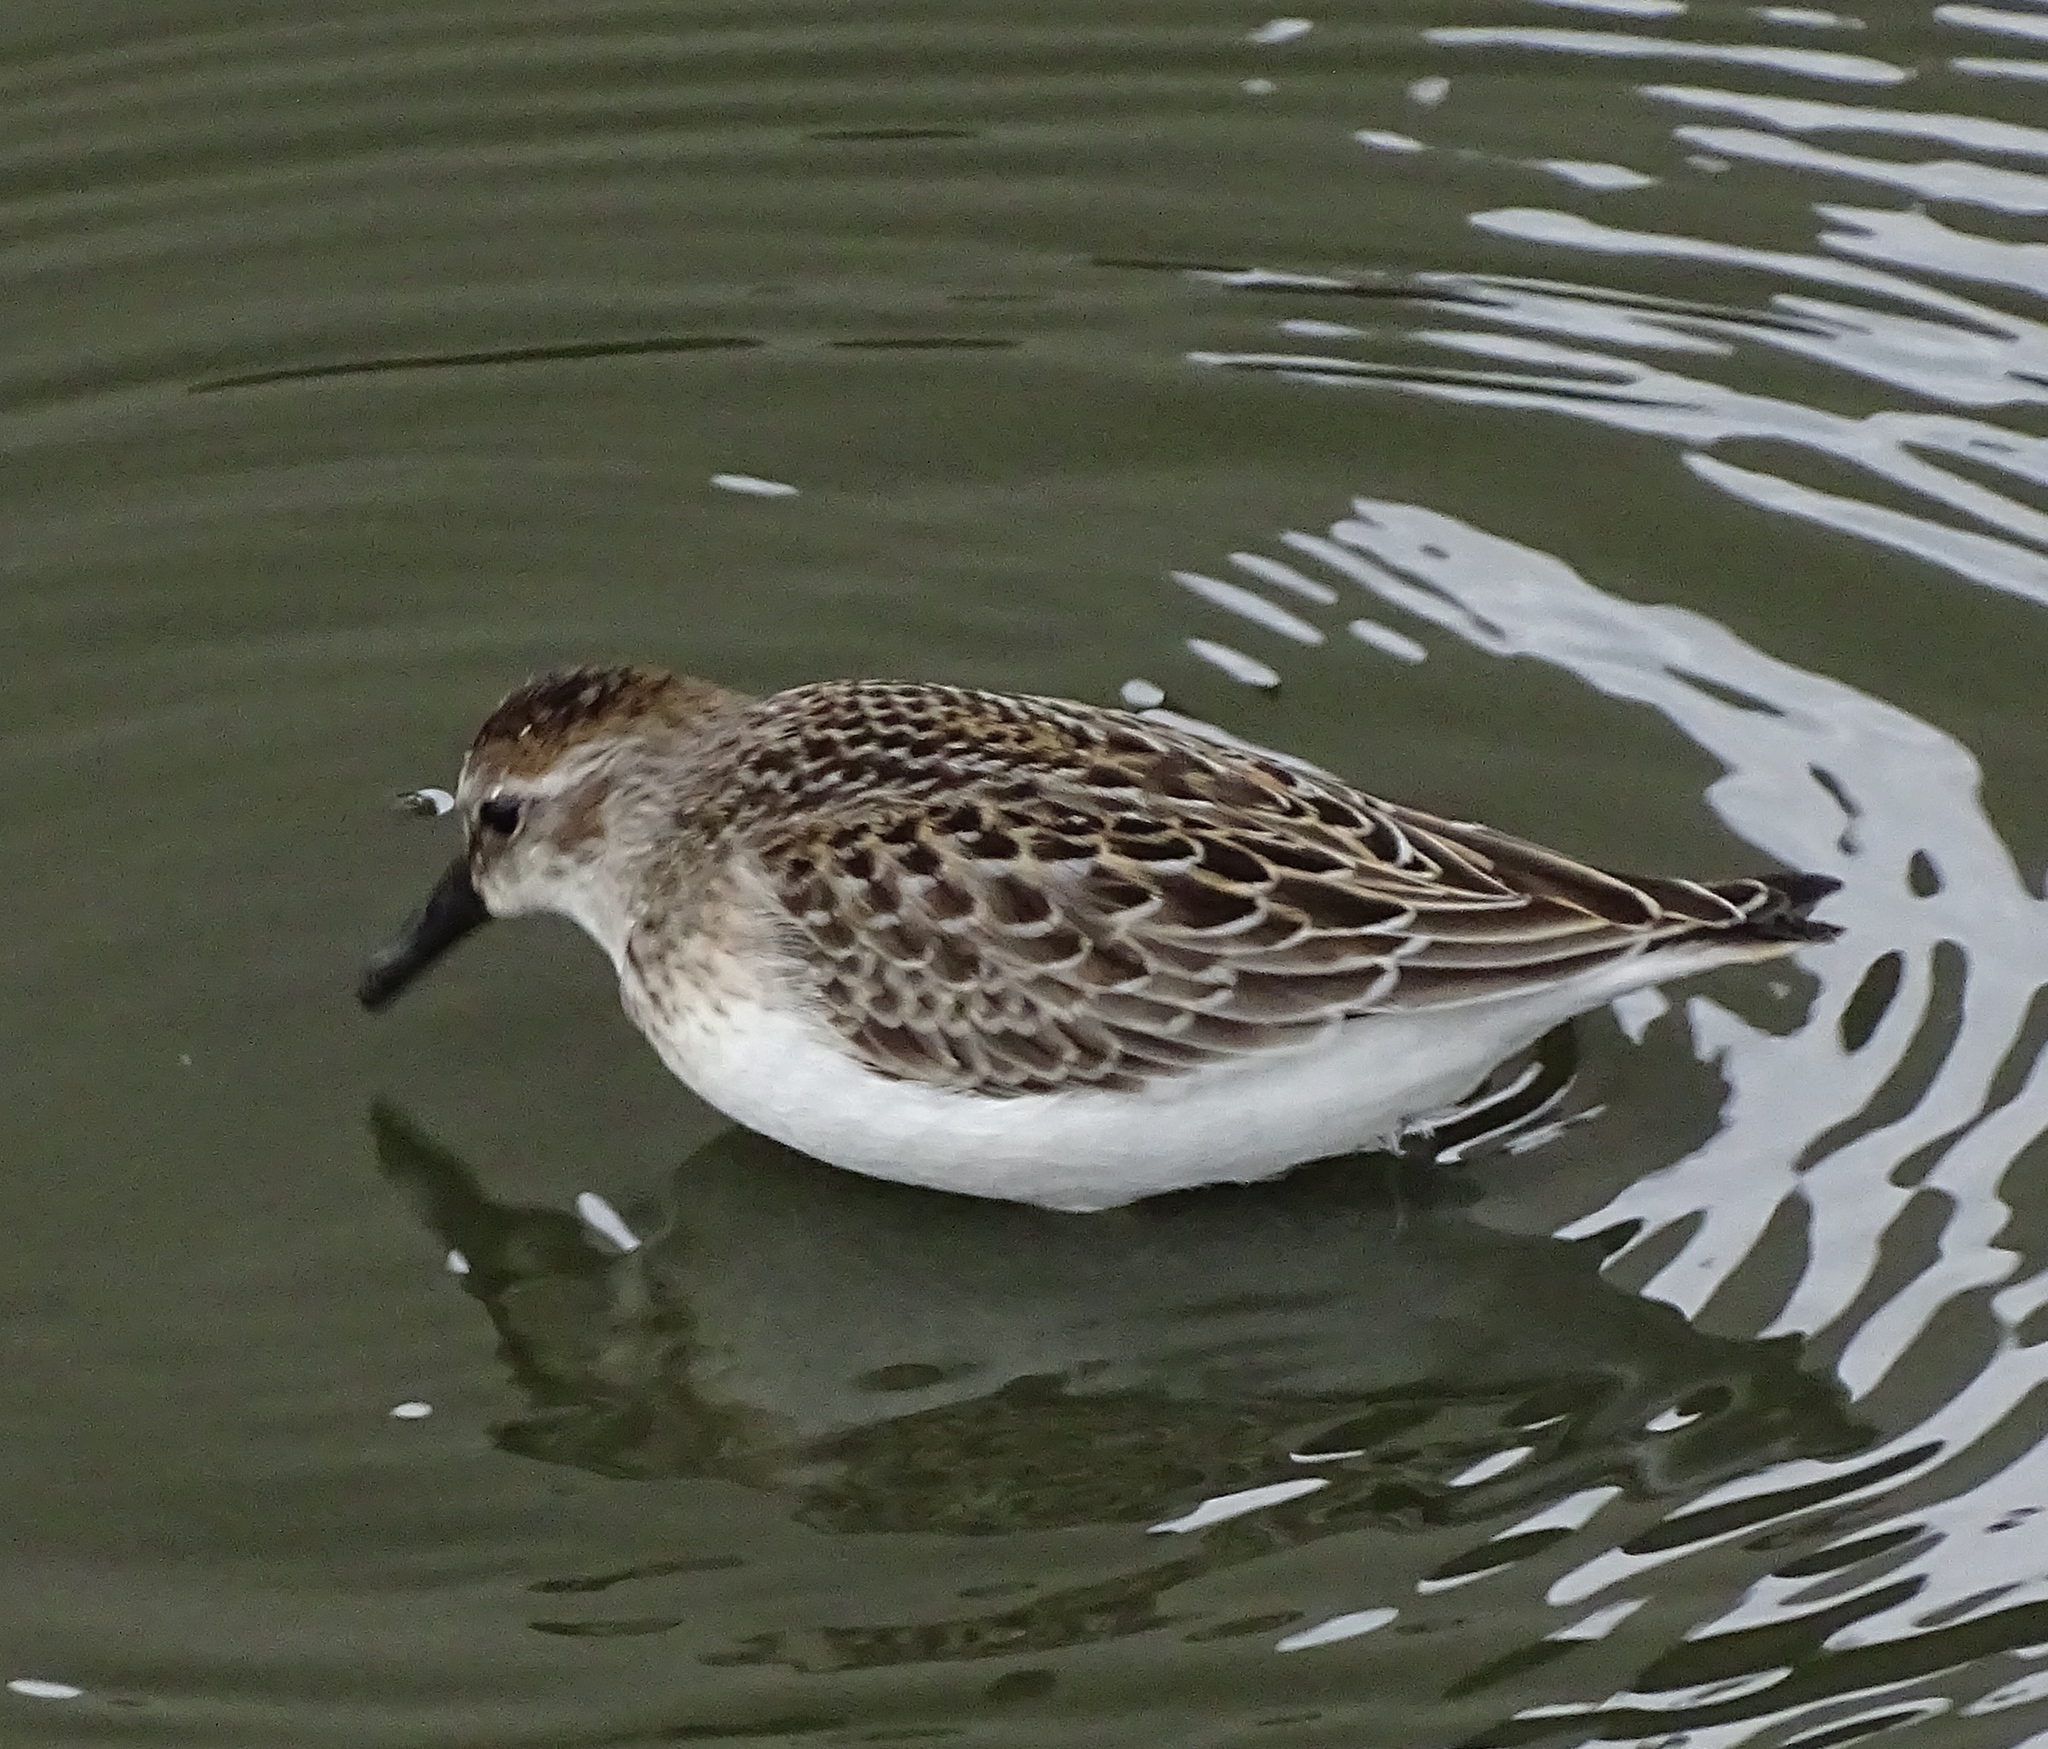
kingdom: Animalia
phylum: Chordata
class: Aves
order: Charadriiformes
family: Scolopacidae
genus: Calidris
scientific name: Calidris pusilla
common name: Semipalmated sandpiper
